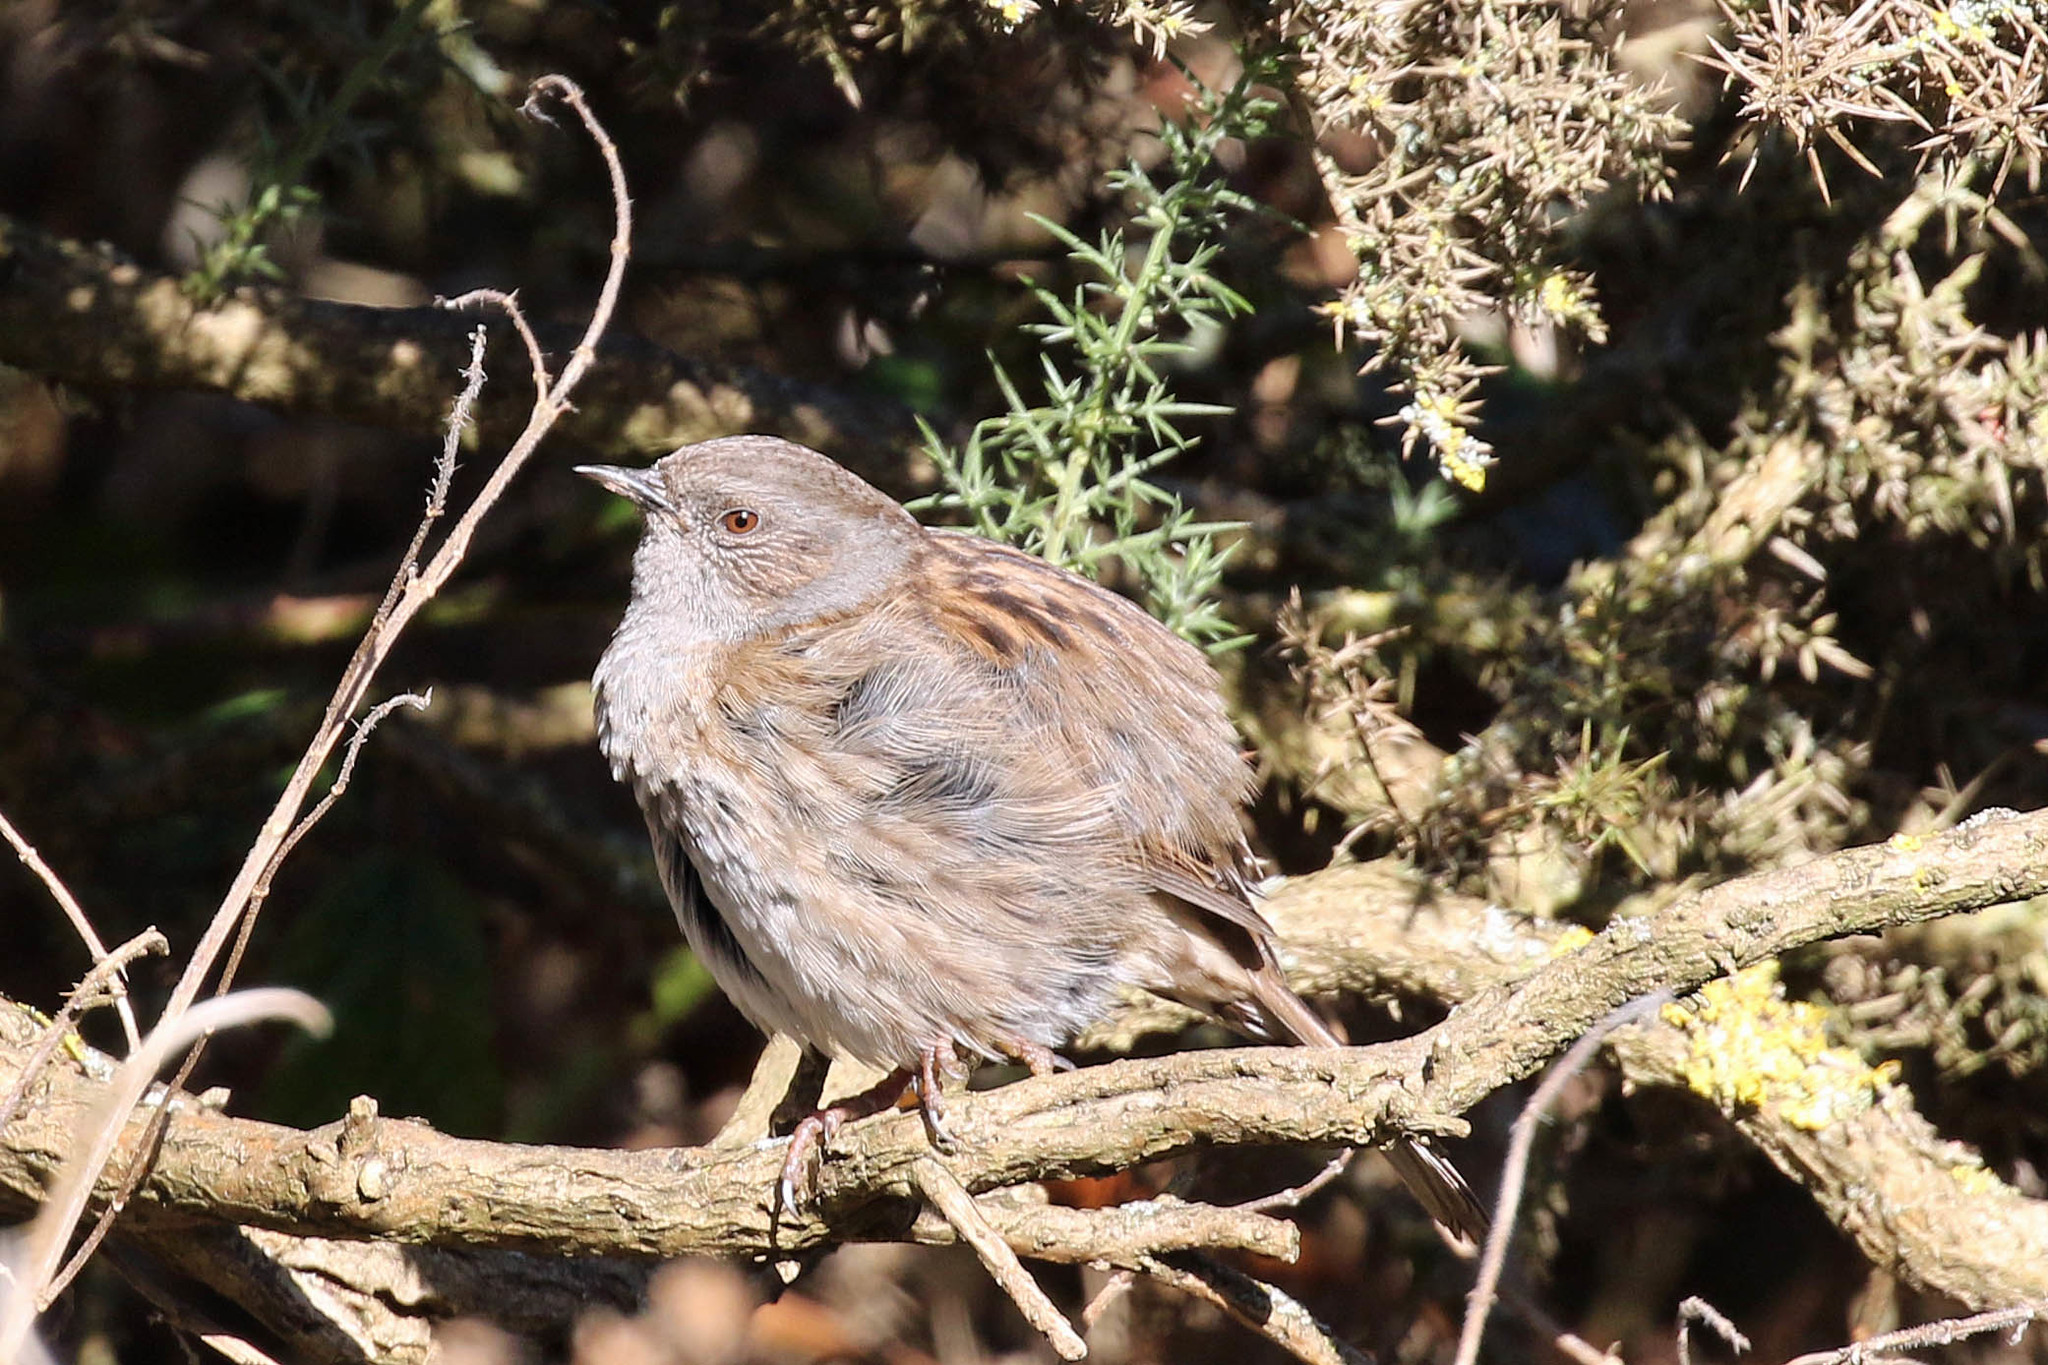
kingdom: Animalia
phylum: Chordata
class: Aves
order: Passeriformes
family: Prunellidae
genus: Prunella
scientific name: Prunella modularis
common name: Dunnock
